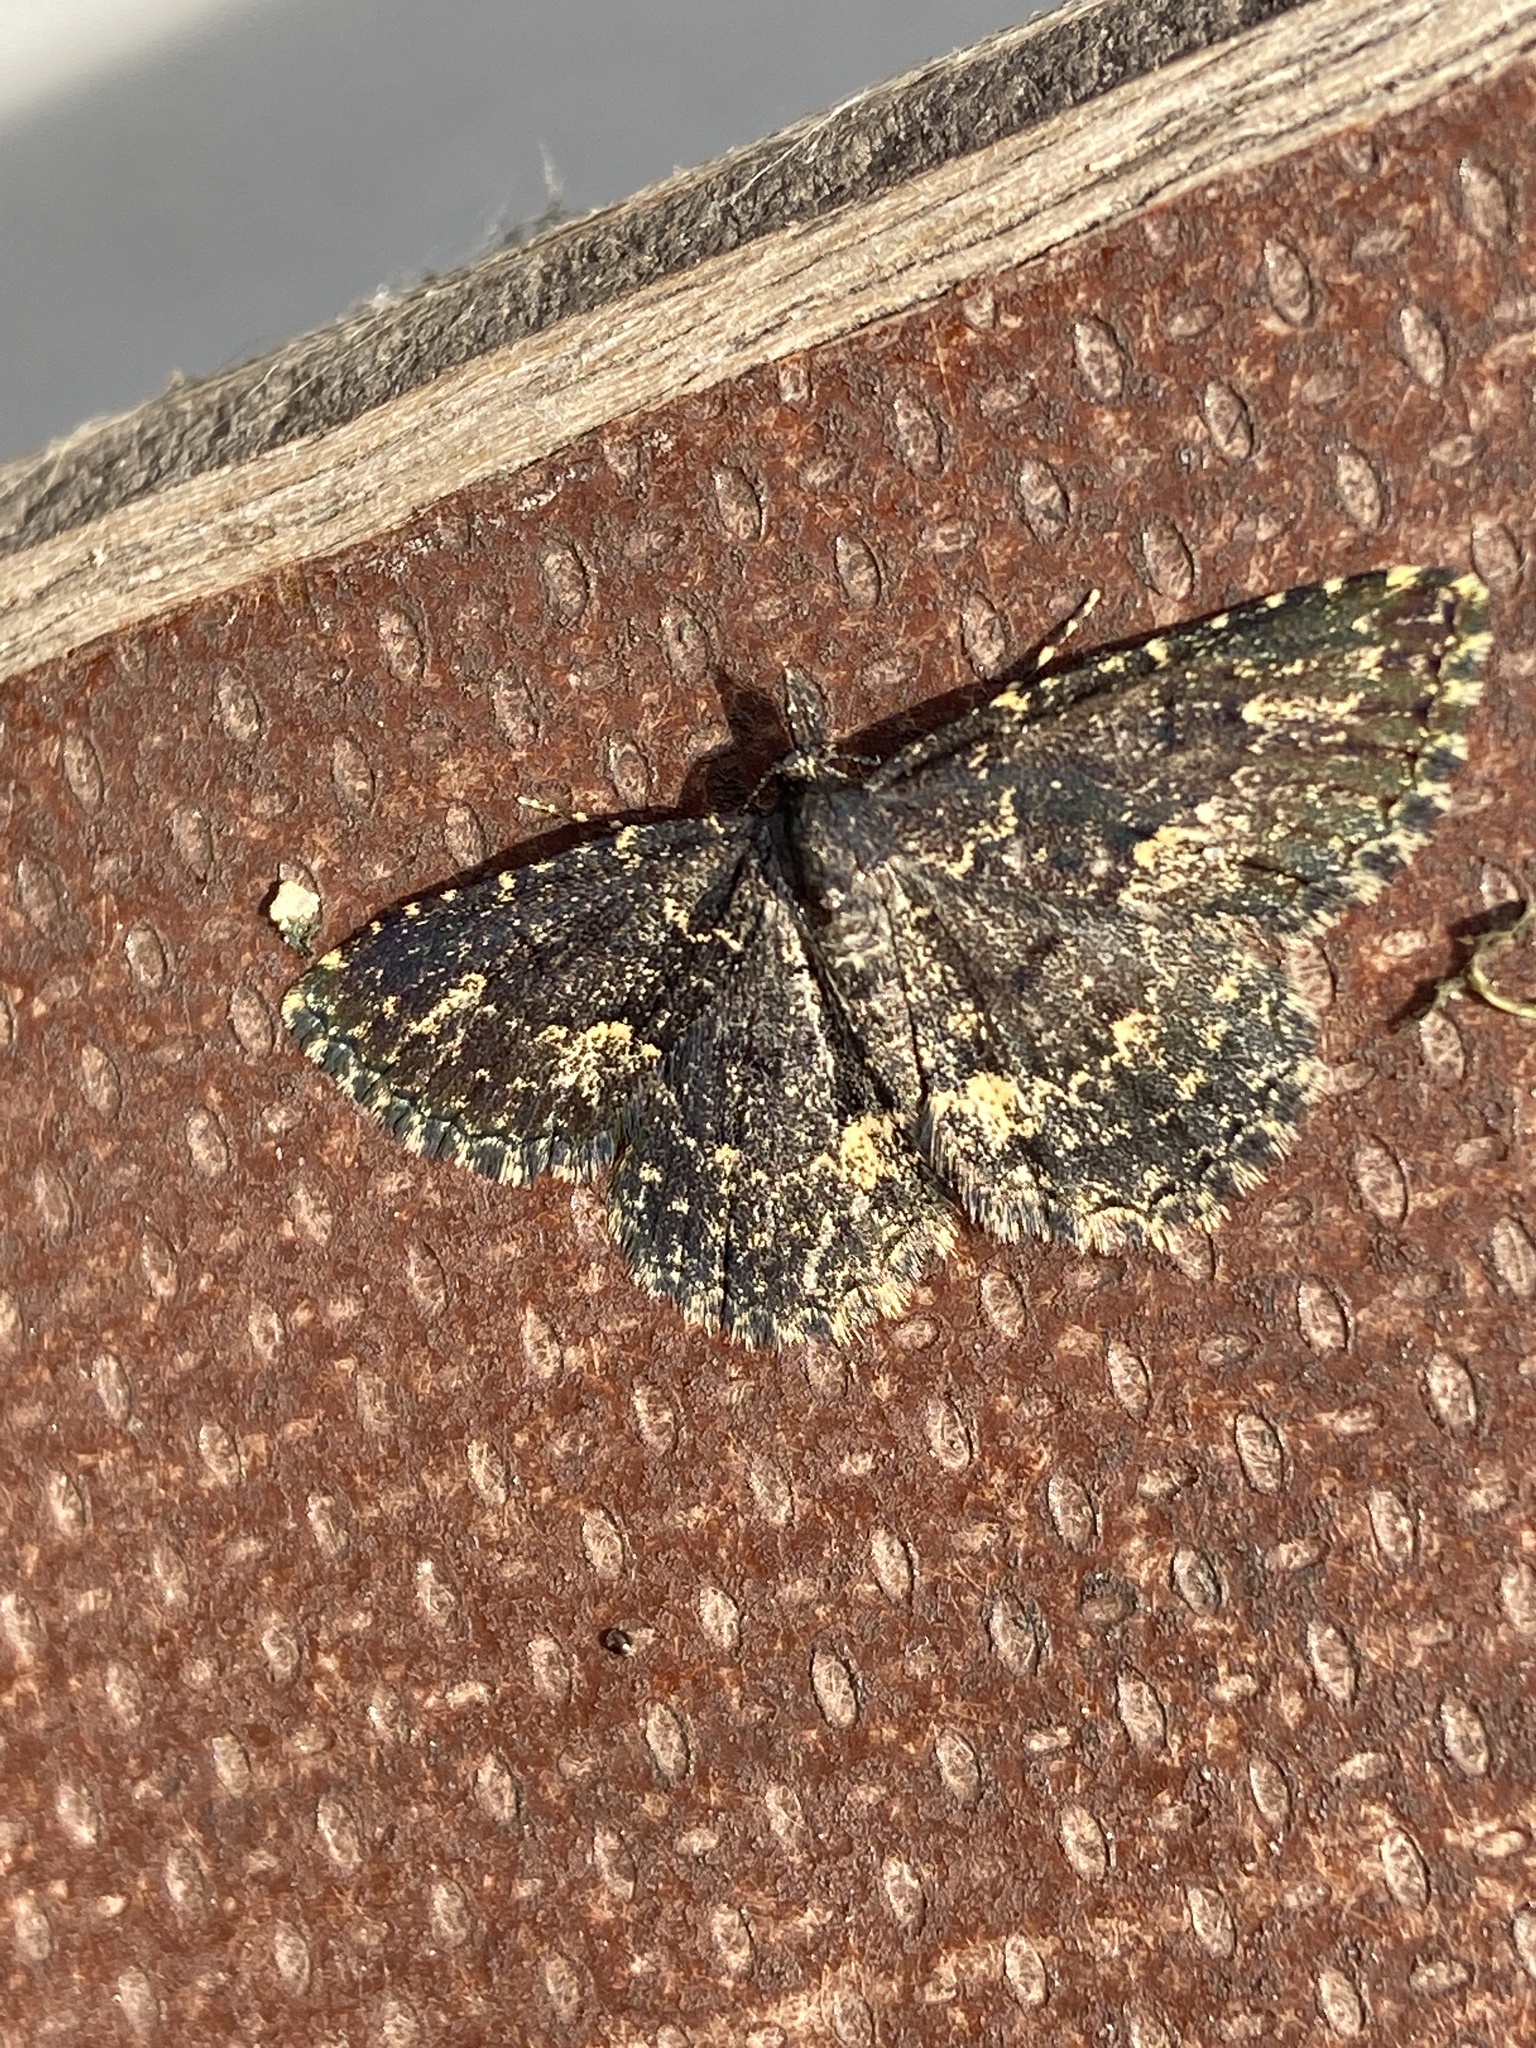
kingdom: Animalia
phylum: Arthropoda
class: Insecta
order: Lepidoptera
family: Erebidae
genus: Parascotia
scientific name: Parascotia fuliginaria
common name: Waved black
